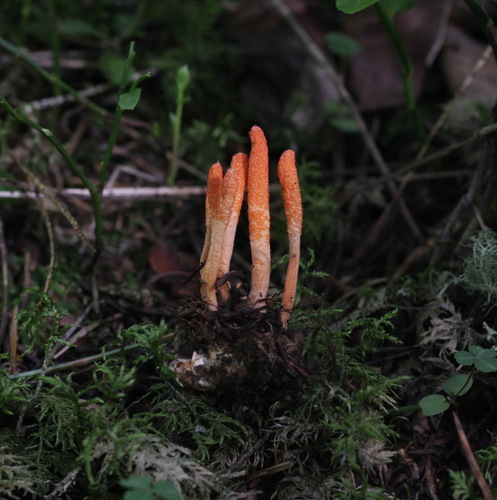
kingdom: Fungi
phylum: Ascomycota
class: Sordariomycetes
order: Hypocreales
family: Cordycipitaceae
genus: Cordyceps
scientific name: Cordyceps militaris
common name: Scarlet caterpillar fungus
